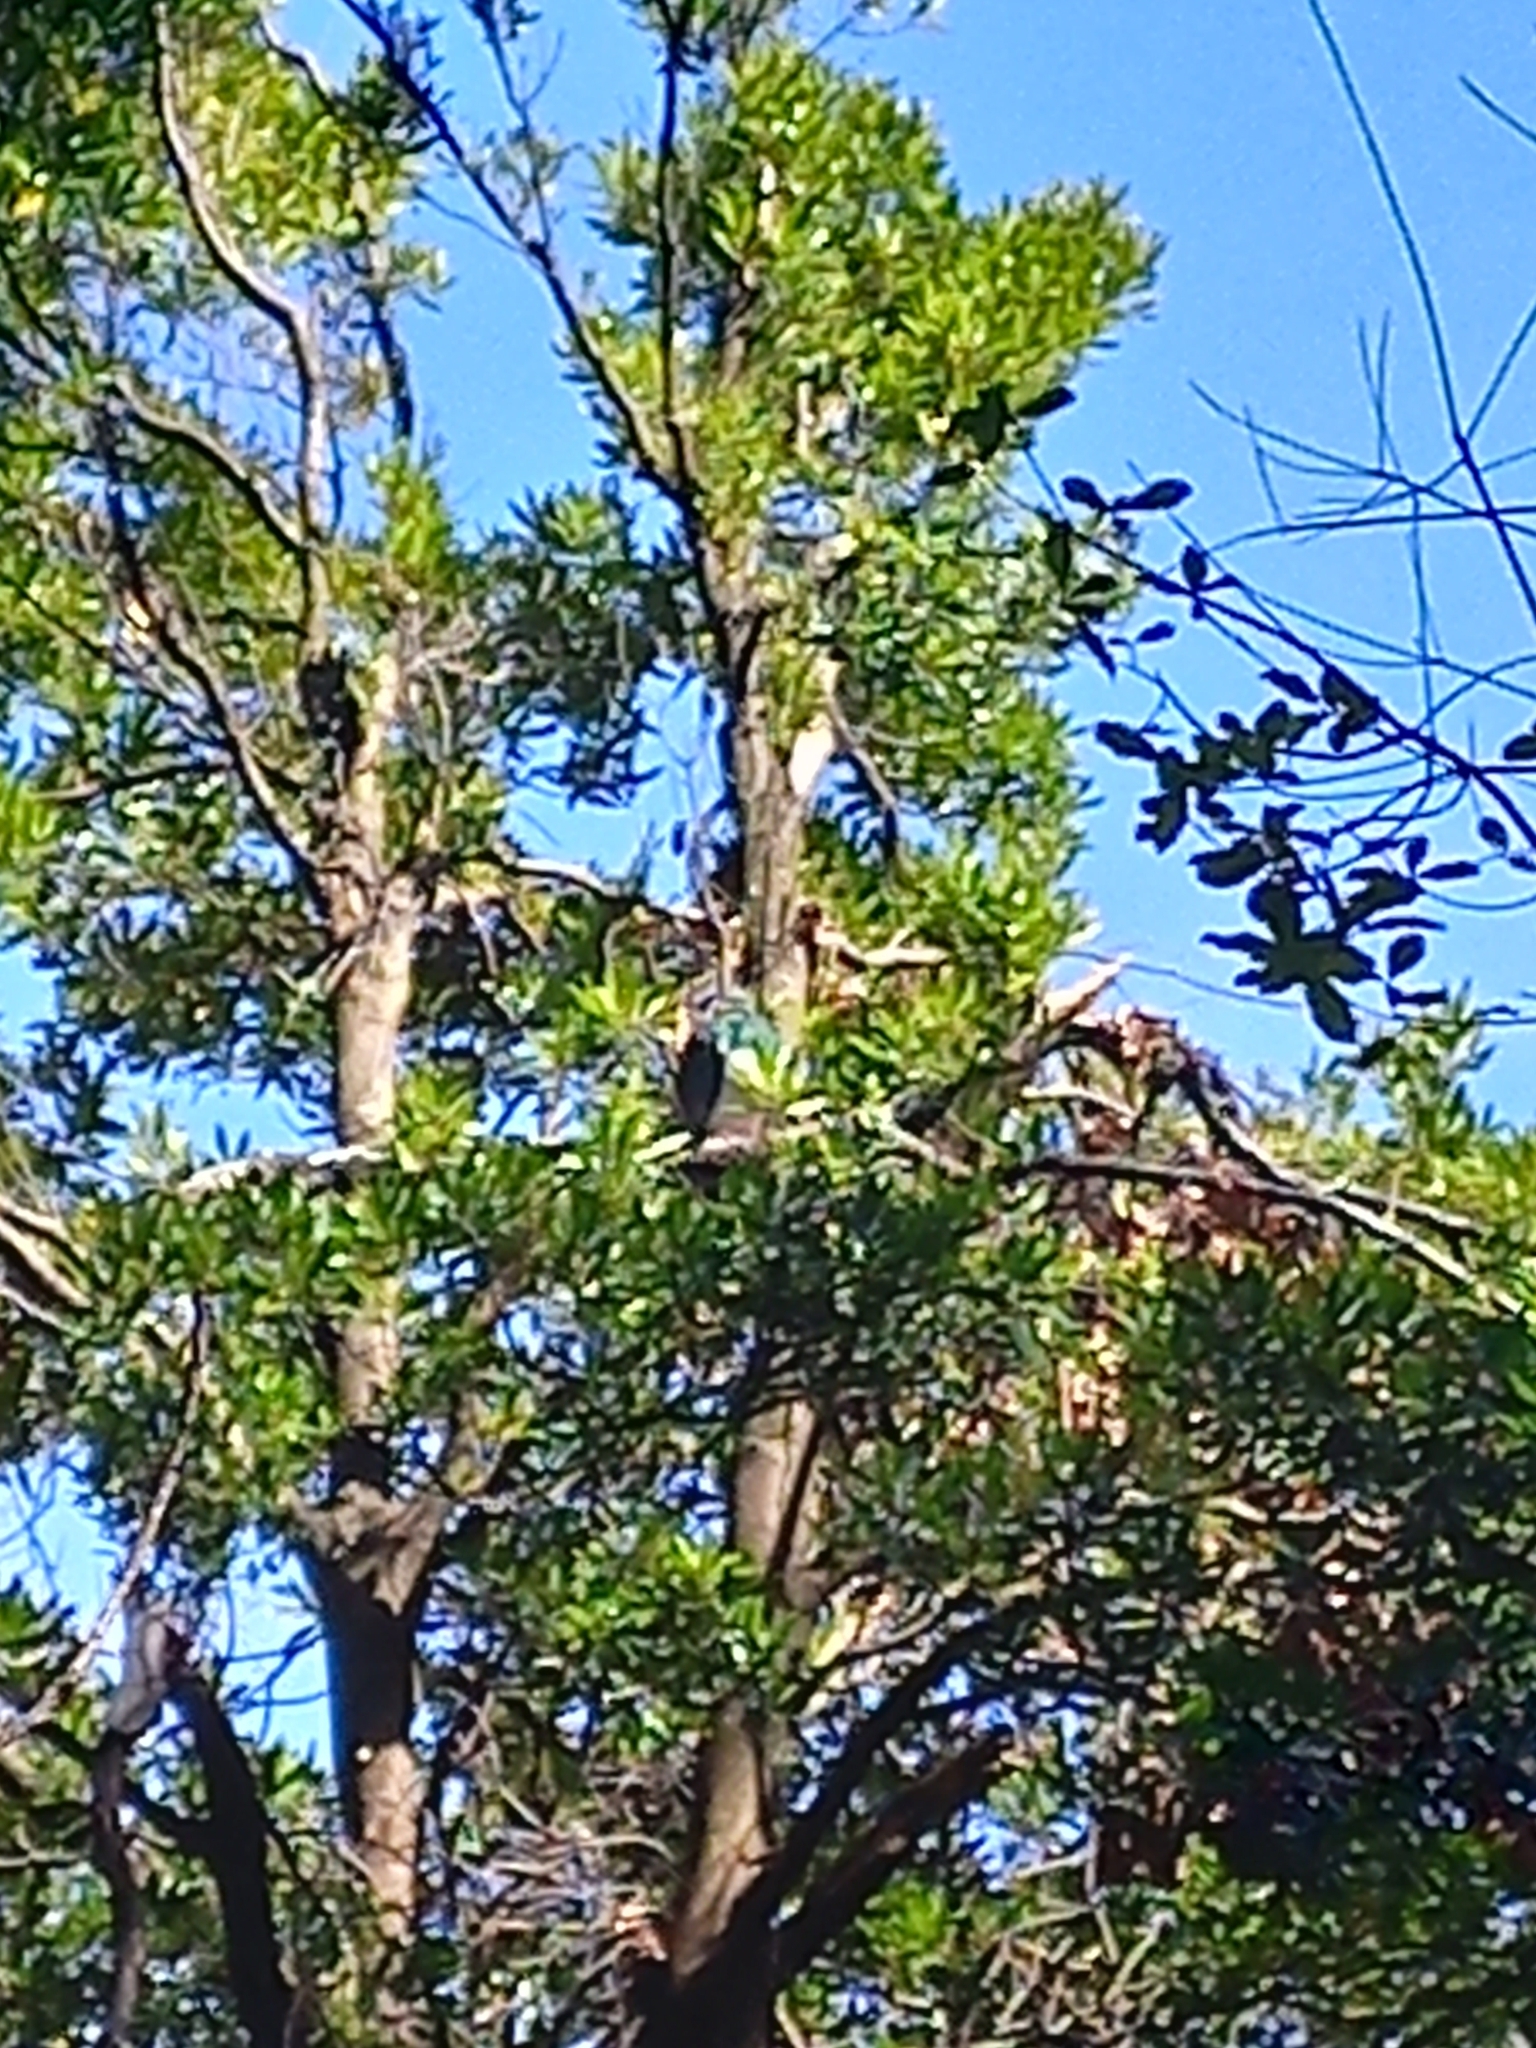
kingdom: Animalia
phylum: Chordata
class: Aves
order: Columbiformes
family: Columbidae
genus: Hemiphaga
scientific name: Hemiphaga novaeseelandiae
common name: New zealand pigeon
